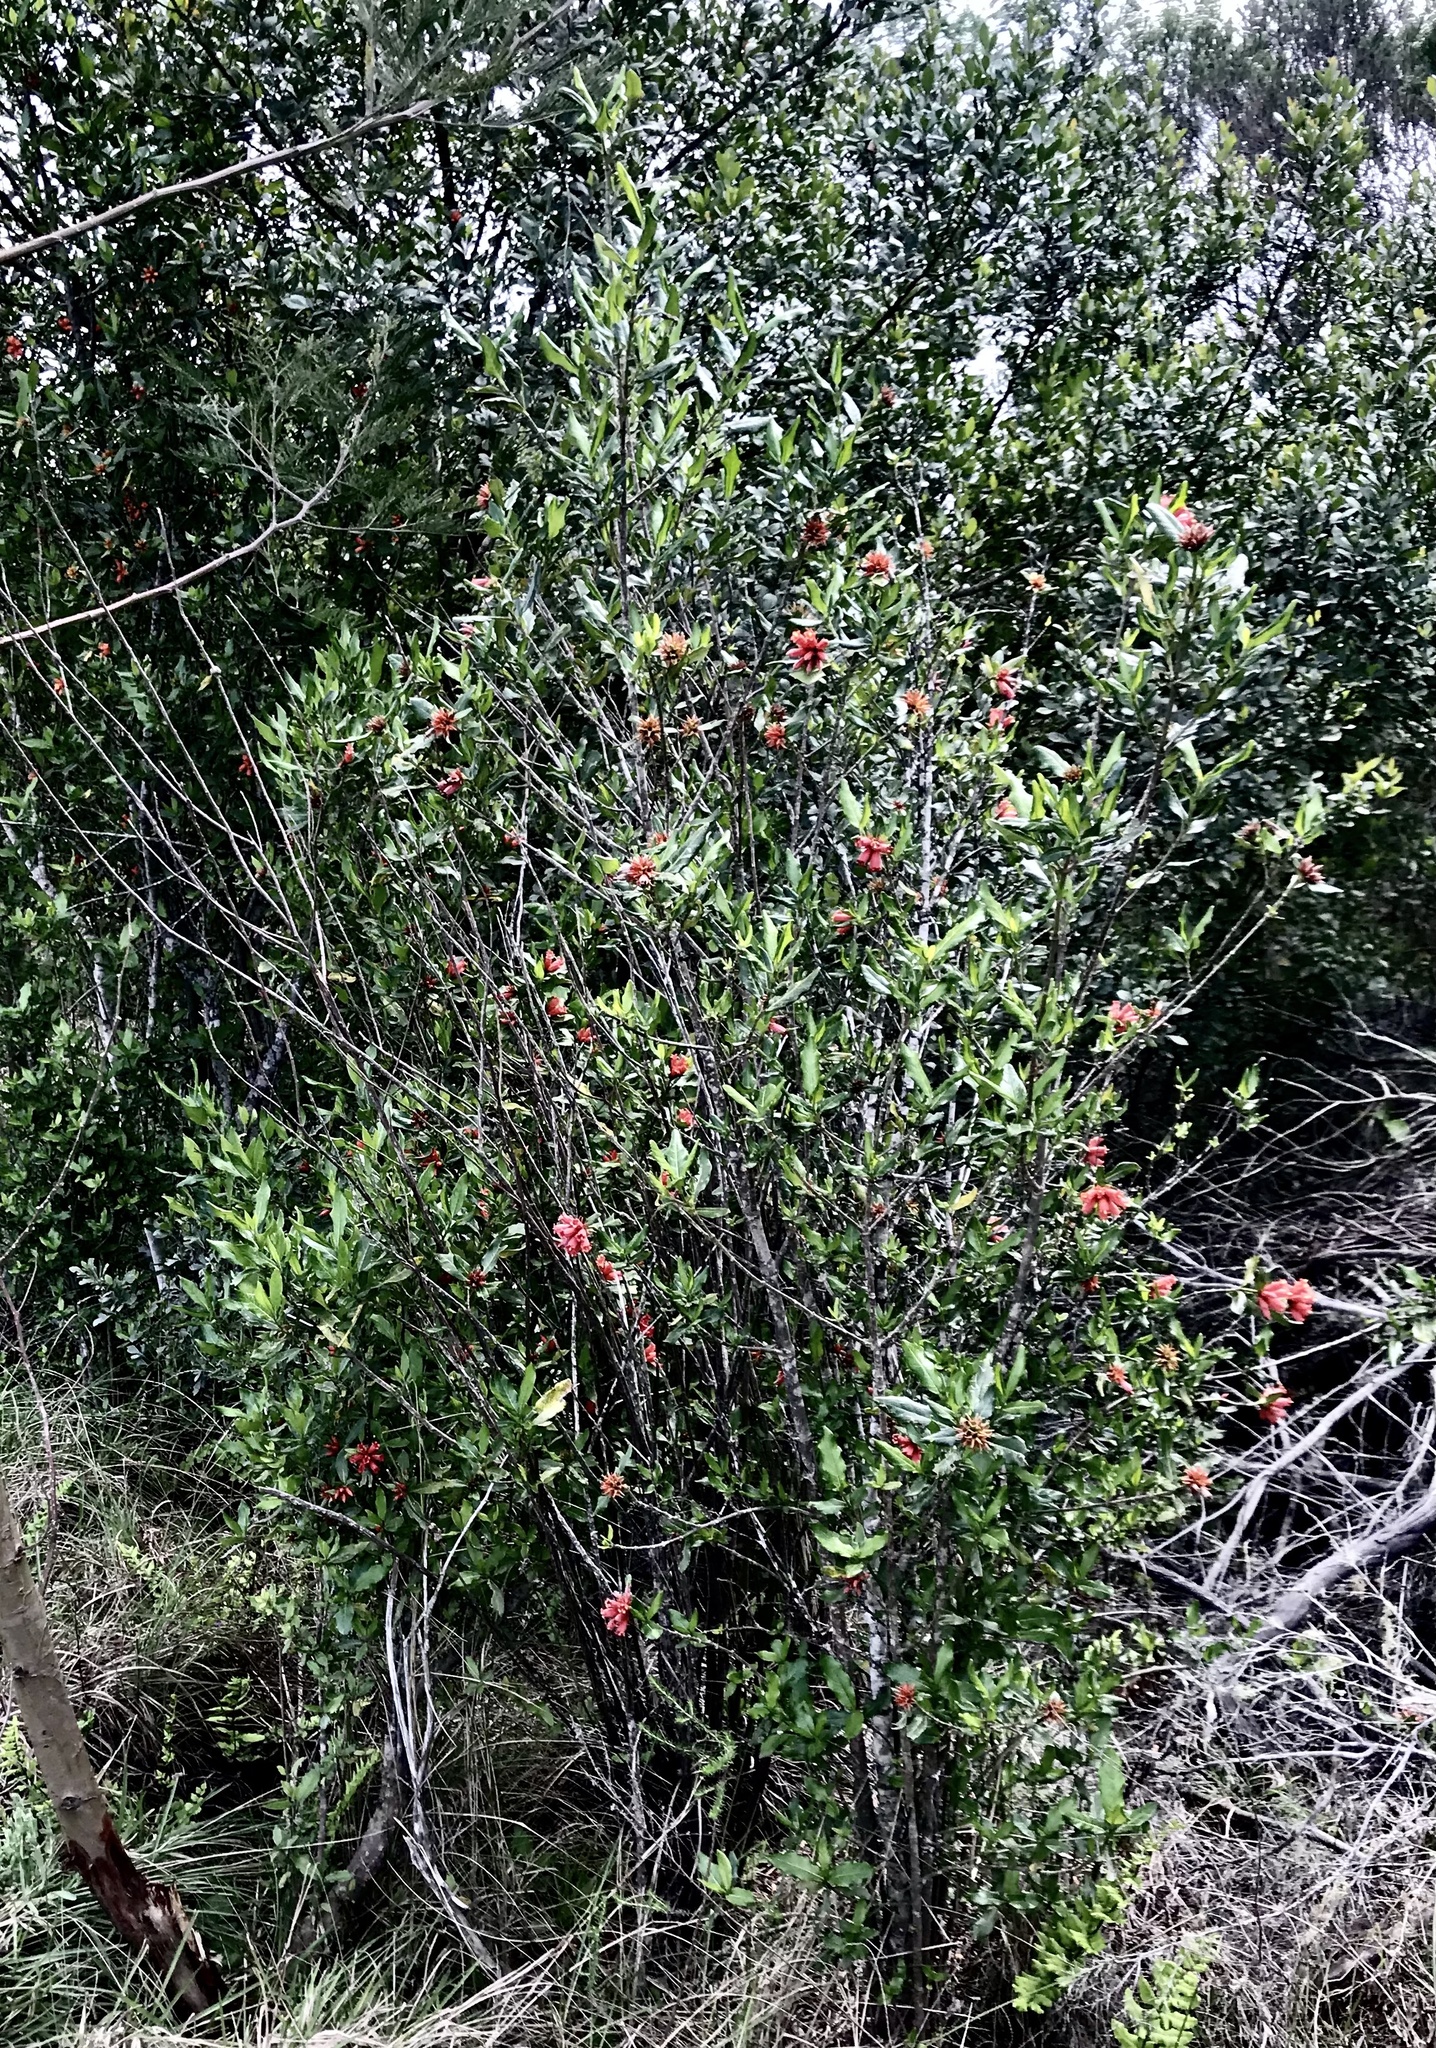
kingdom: Plantae
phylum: Tracheophyta
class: Magnoliopsida
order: Gentianales
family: Rubiaceae
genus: Burchellia
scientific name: Burchellia bubalina
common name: Wild pomegranate
